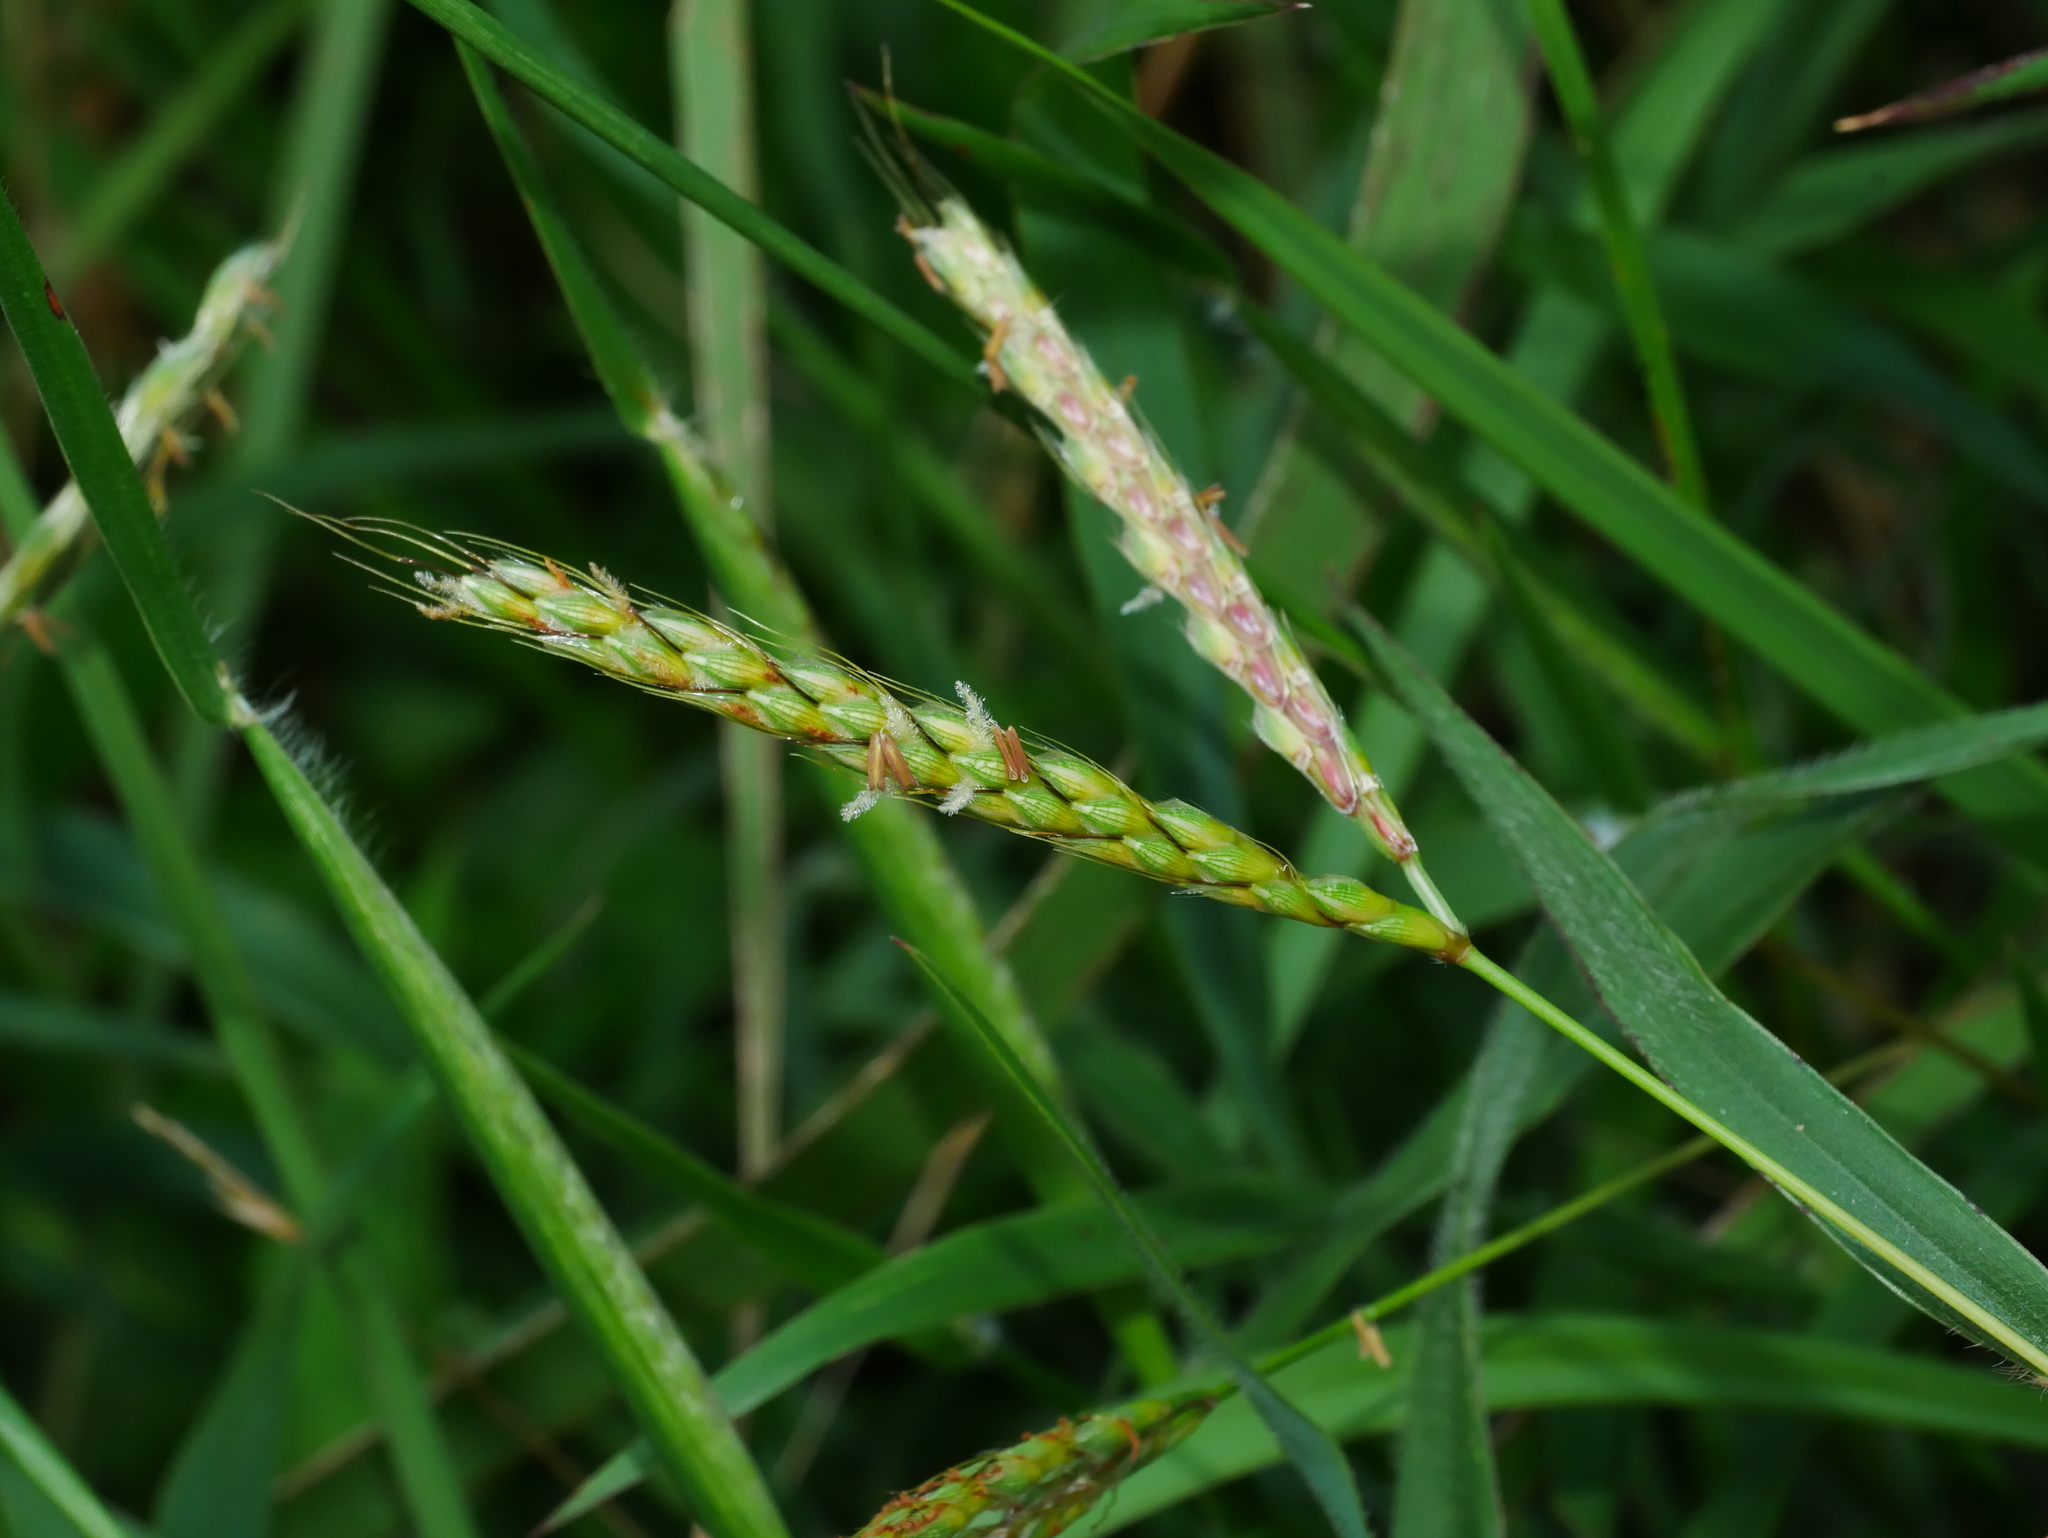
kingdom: Plantae
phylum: Tracheophyta
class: Liliopsida
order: Poales
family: Poaceae
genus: Ischaemum
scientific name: Ischaemum ciliare
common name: Grass
